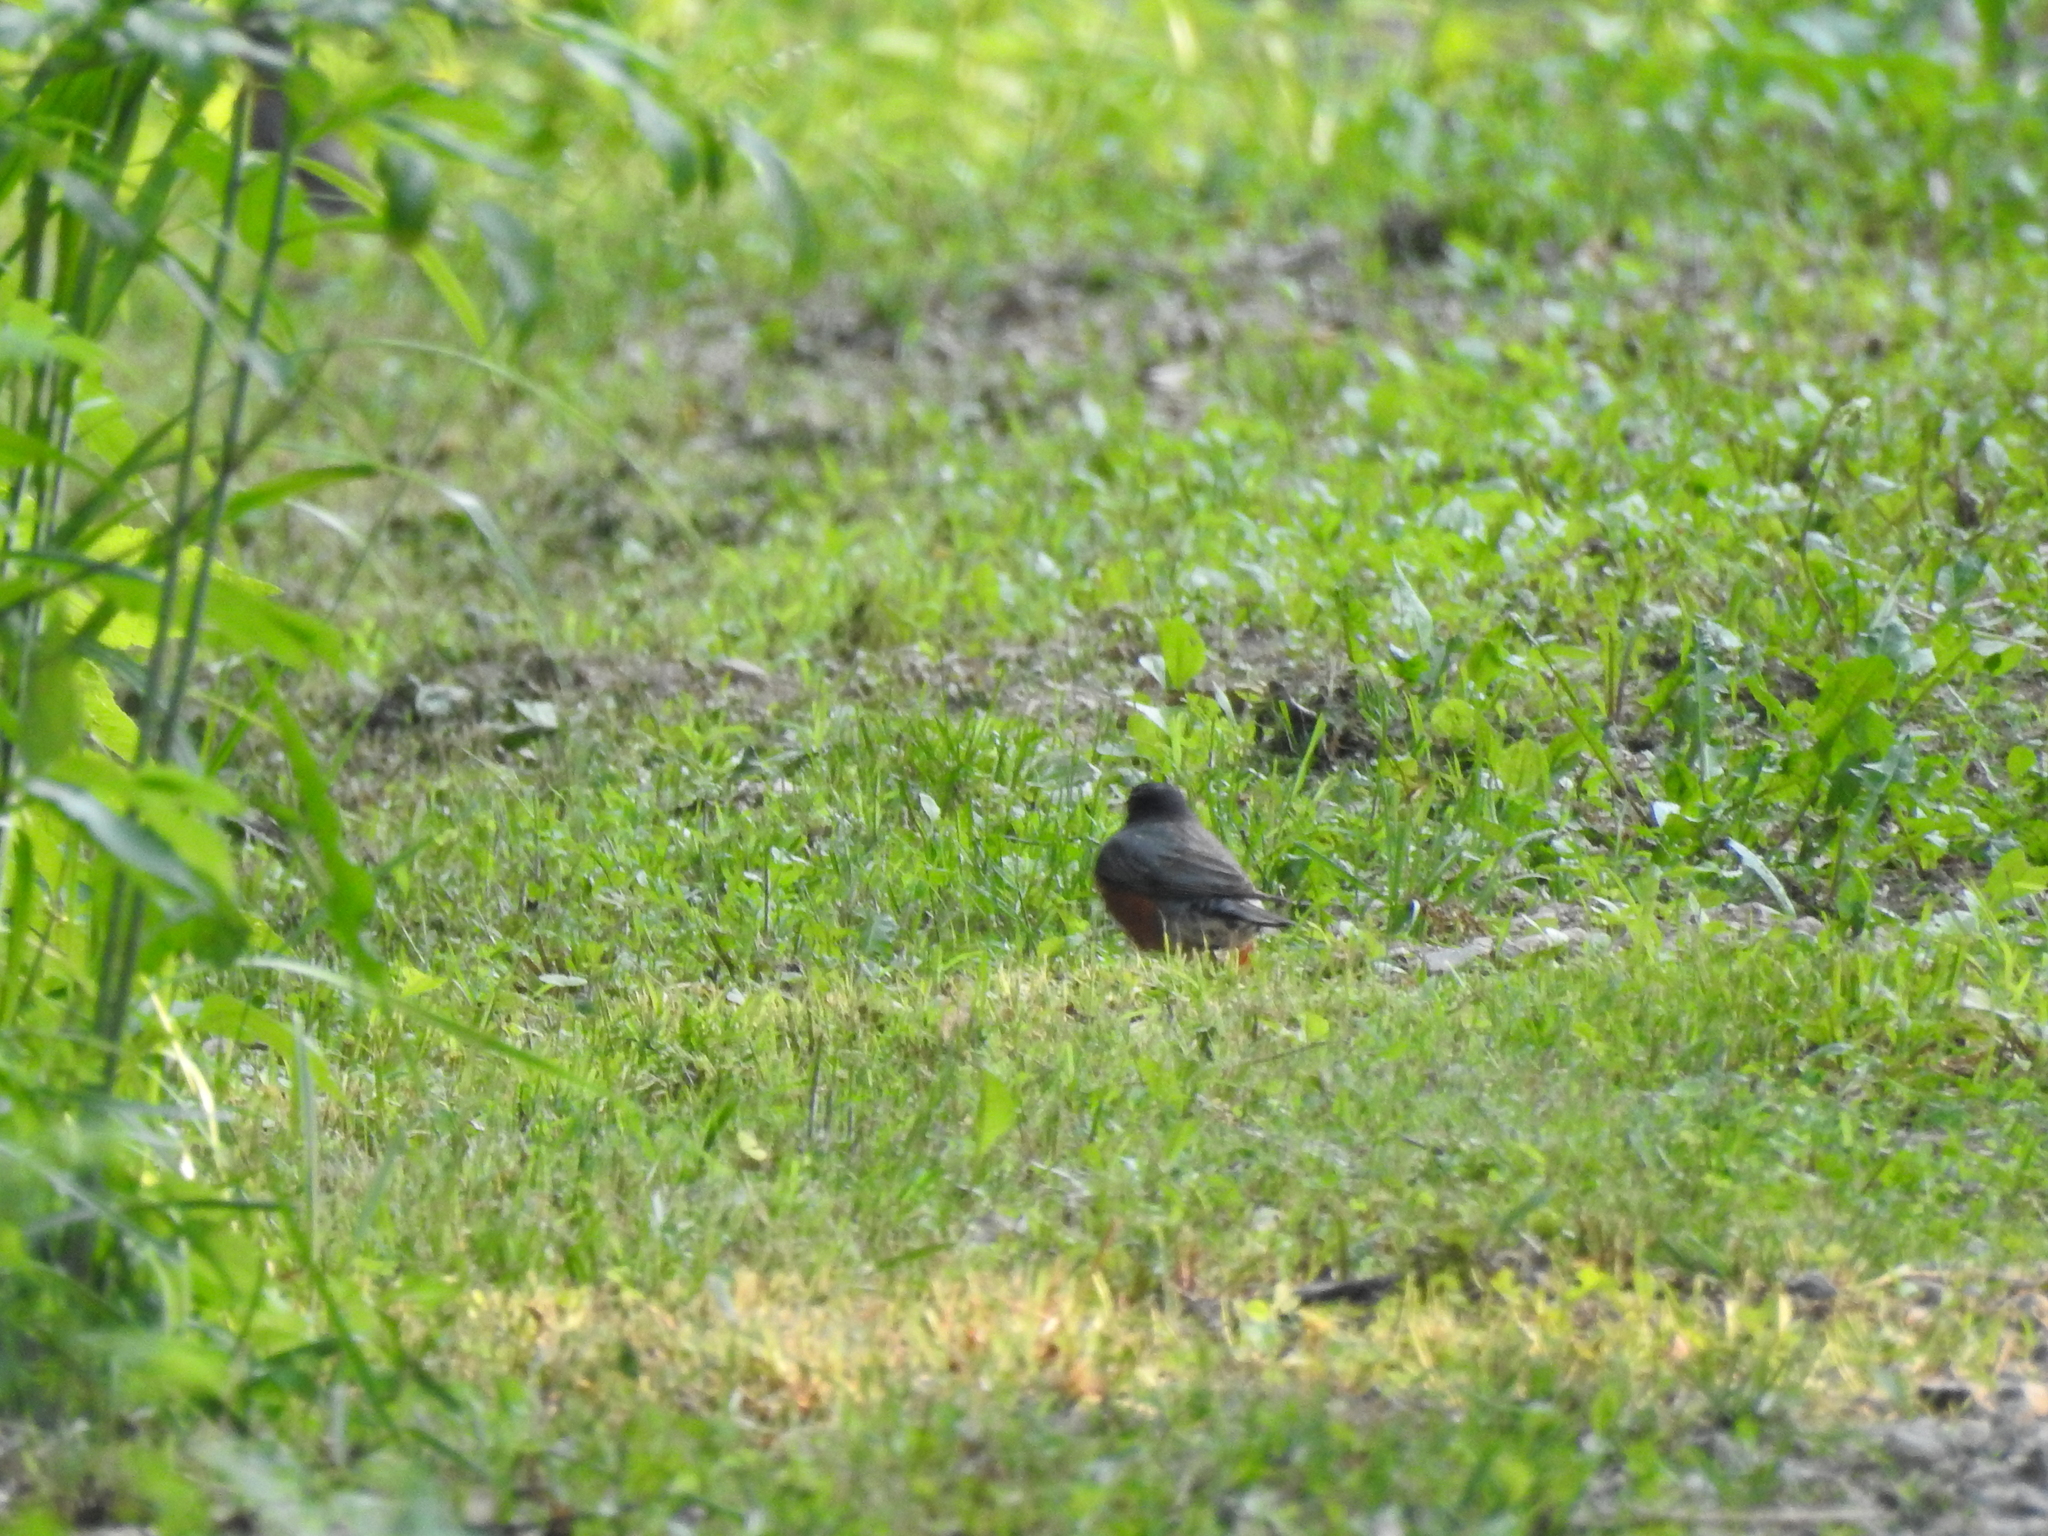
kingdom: Animalia
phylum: Chordata
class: Aves
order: Passeriformes
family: Turdidae
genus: Turdus
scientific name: Turdus migratorius
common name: American robin
